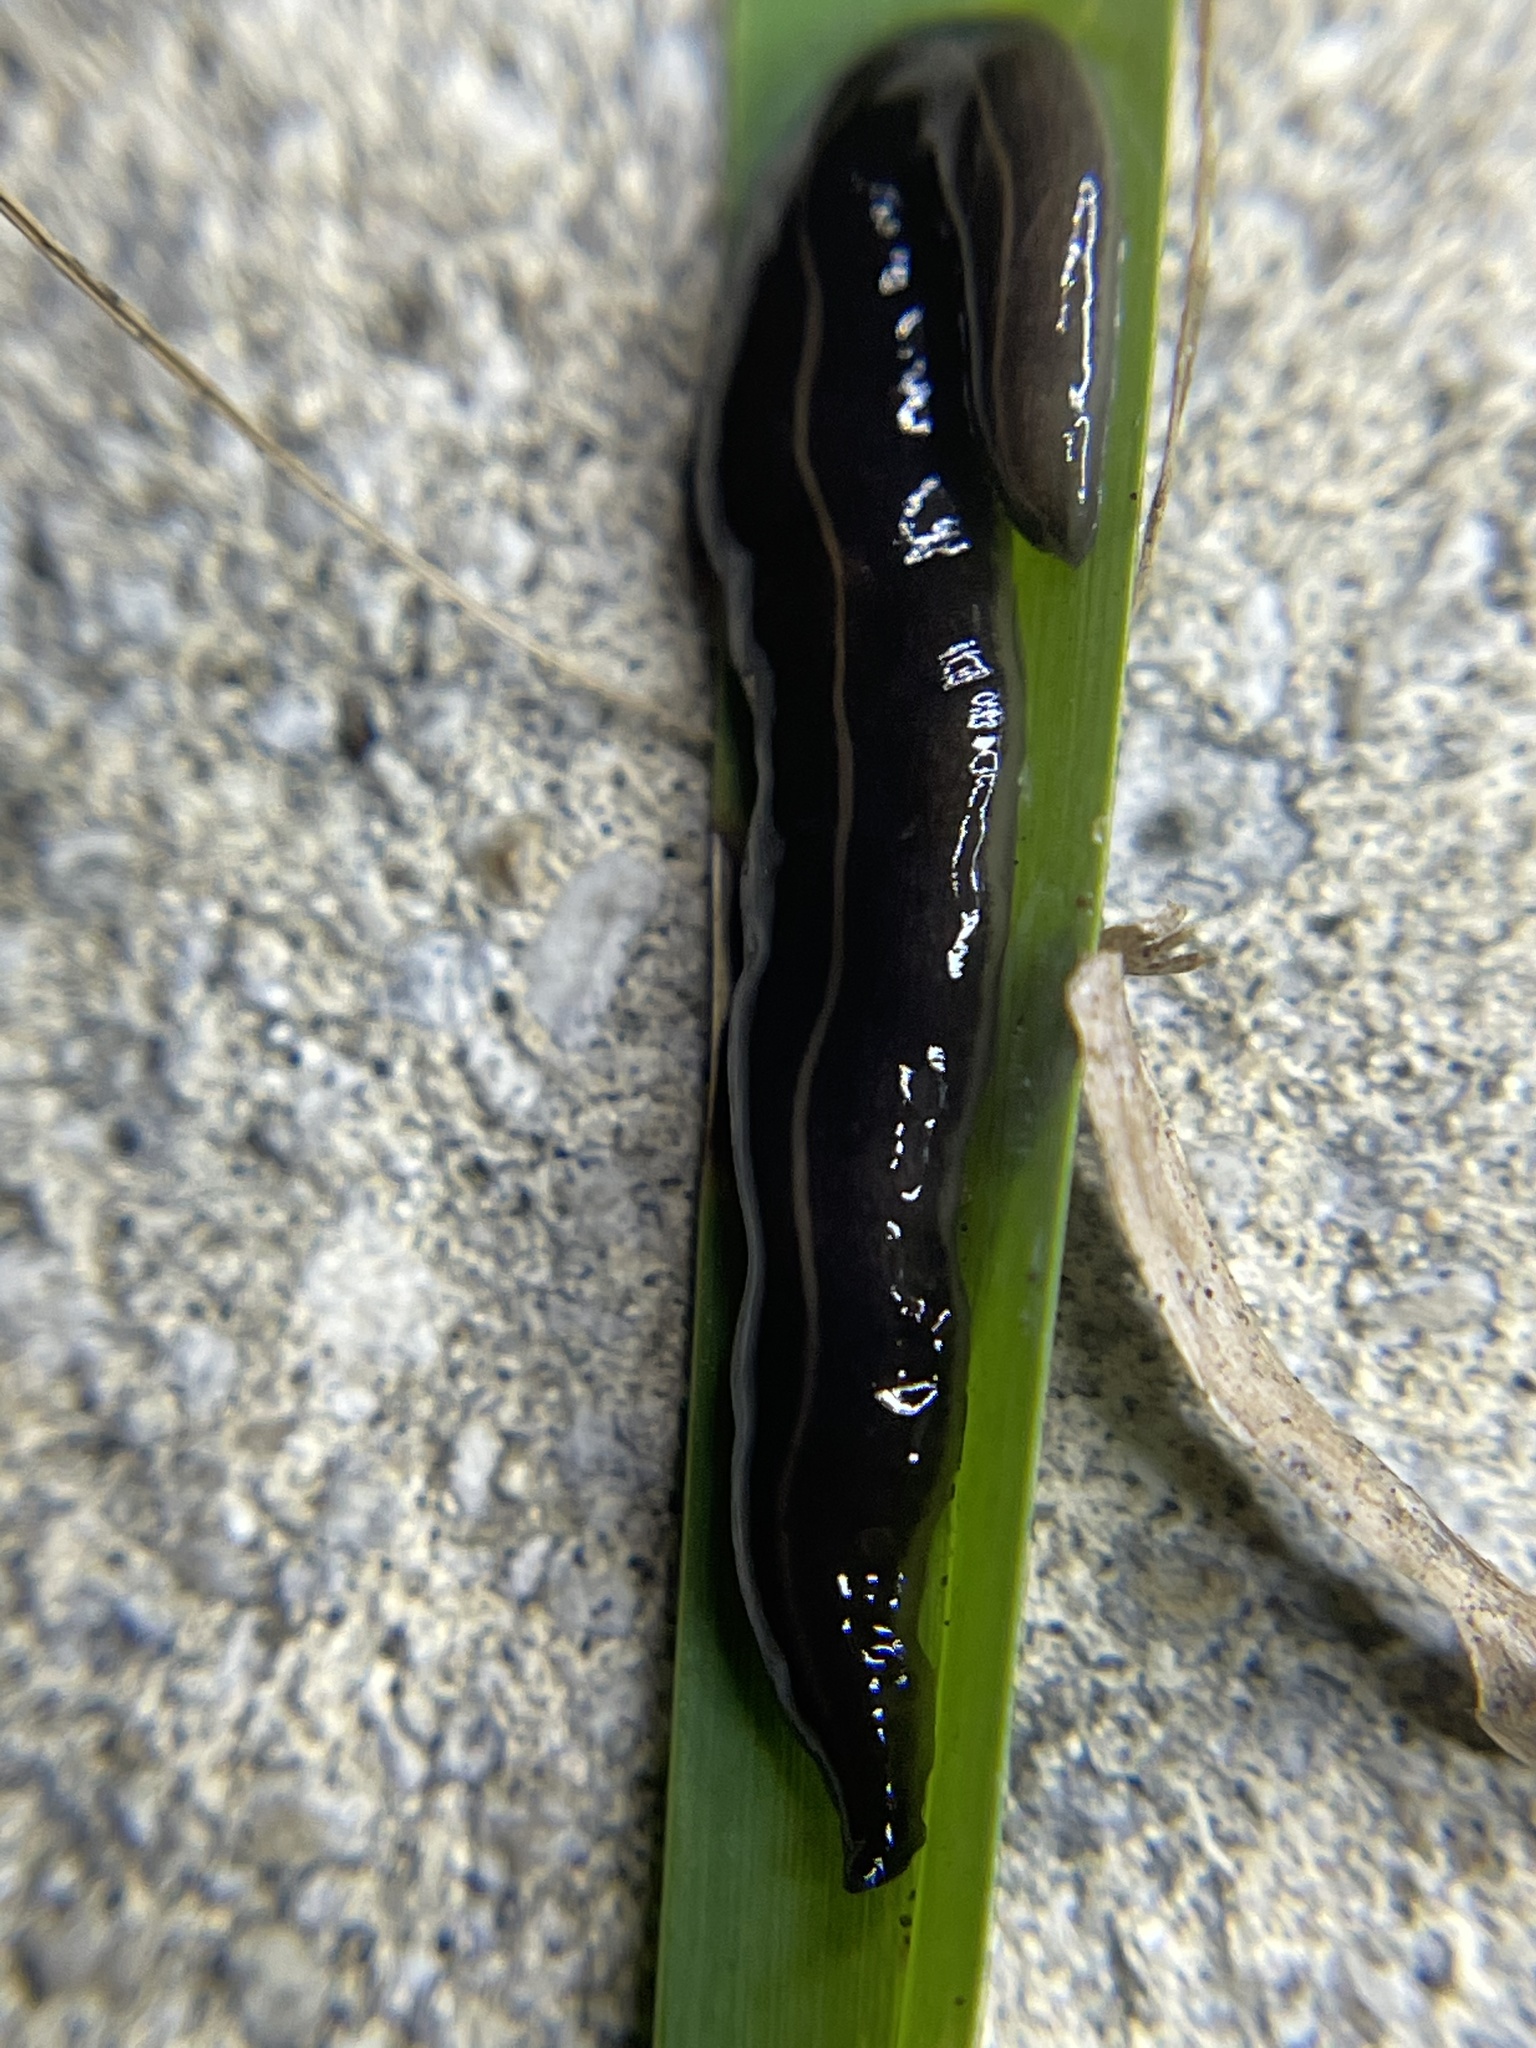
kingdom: Animalia
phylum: Platyhelminthes
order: Tricladida
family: Geoplanidae
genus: Platydemus
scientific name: Platydemus manokwari
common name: New guinea flatworm
